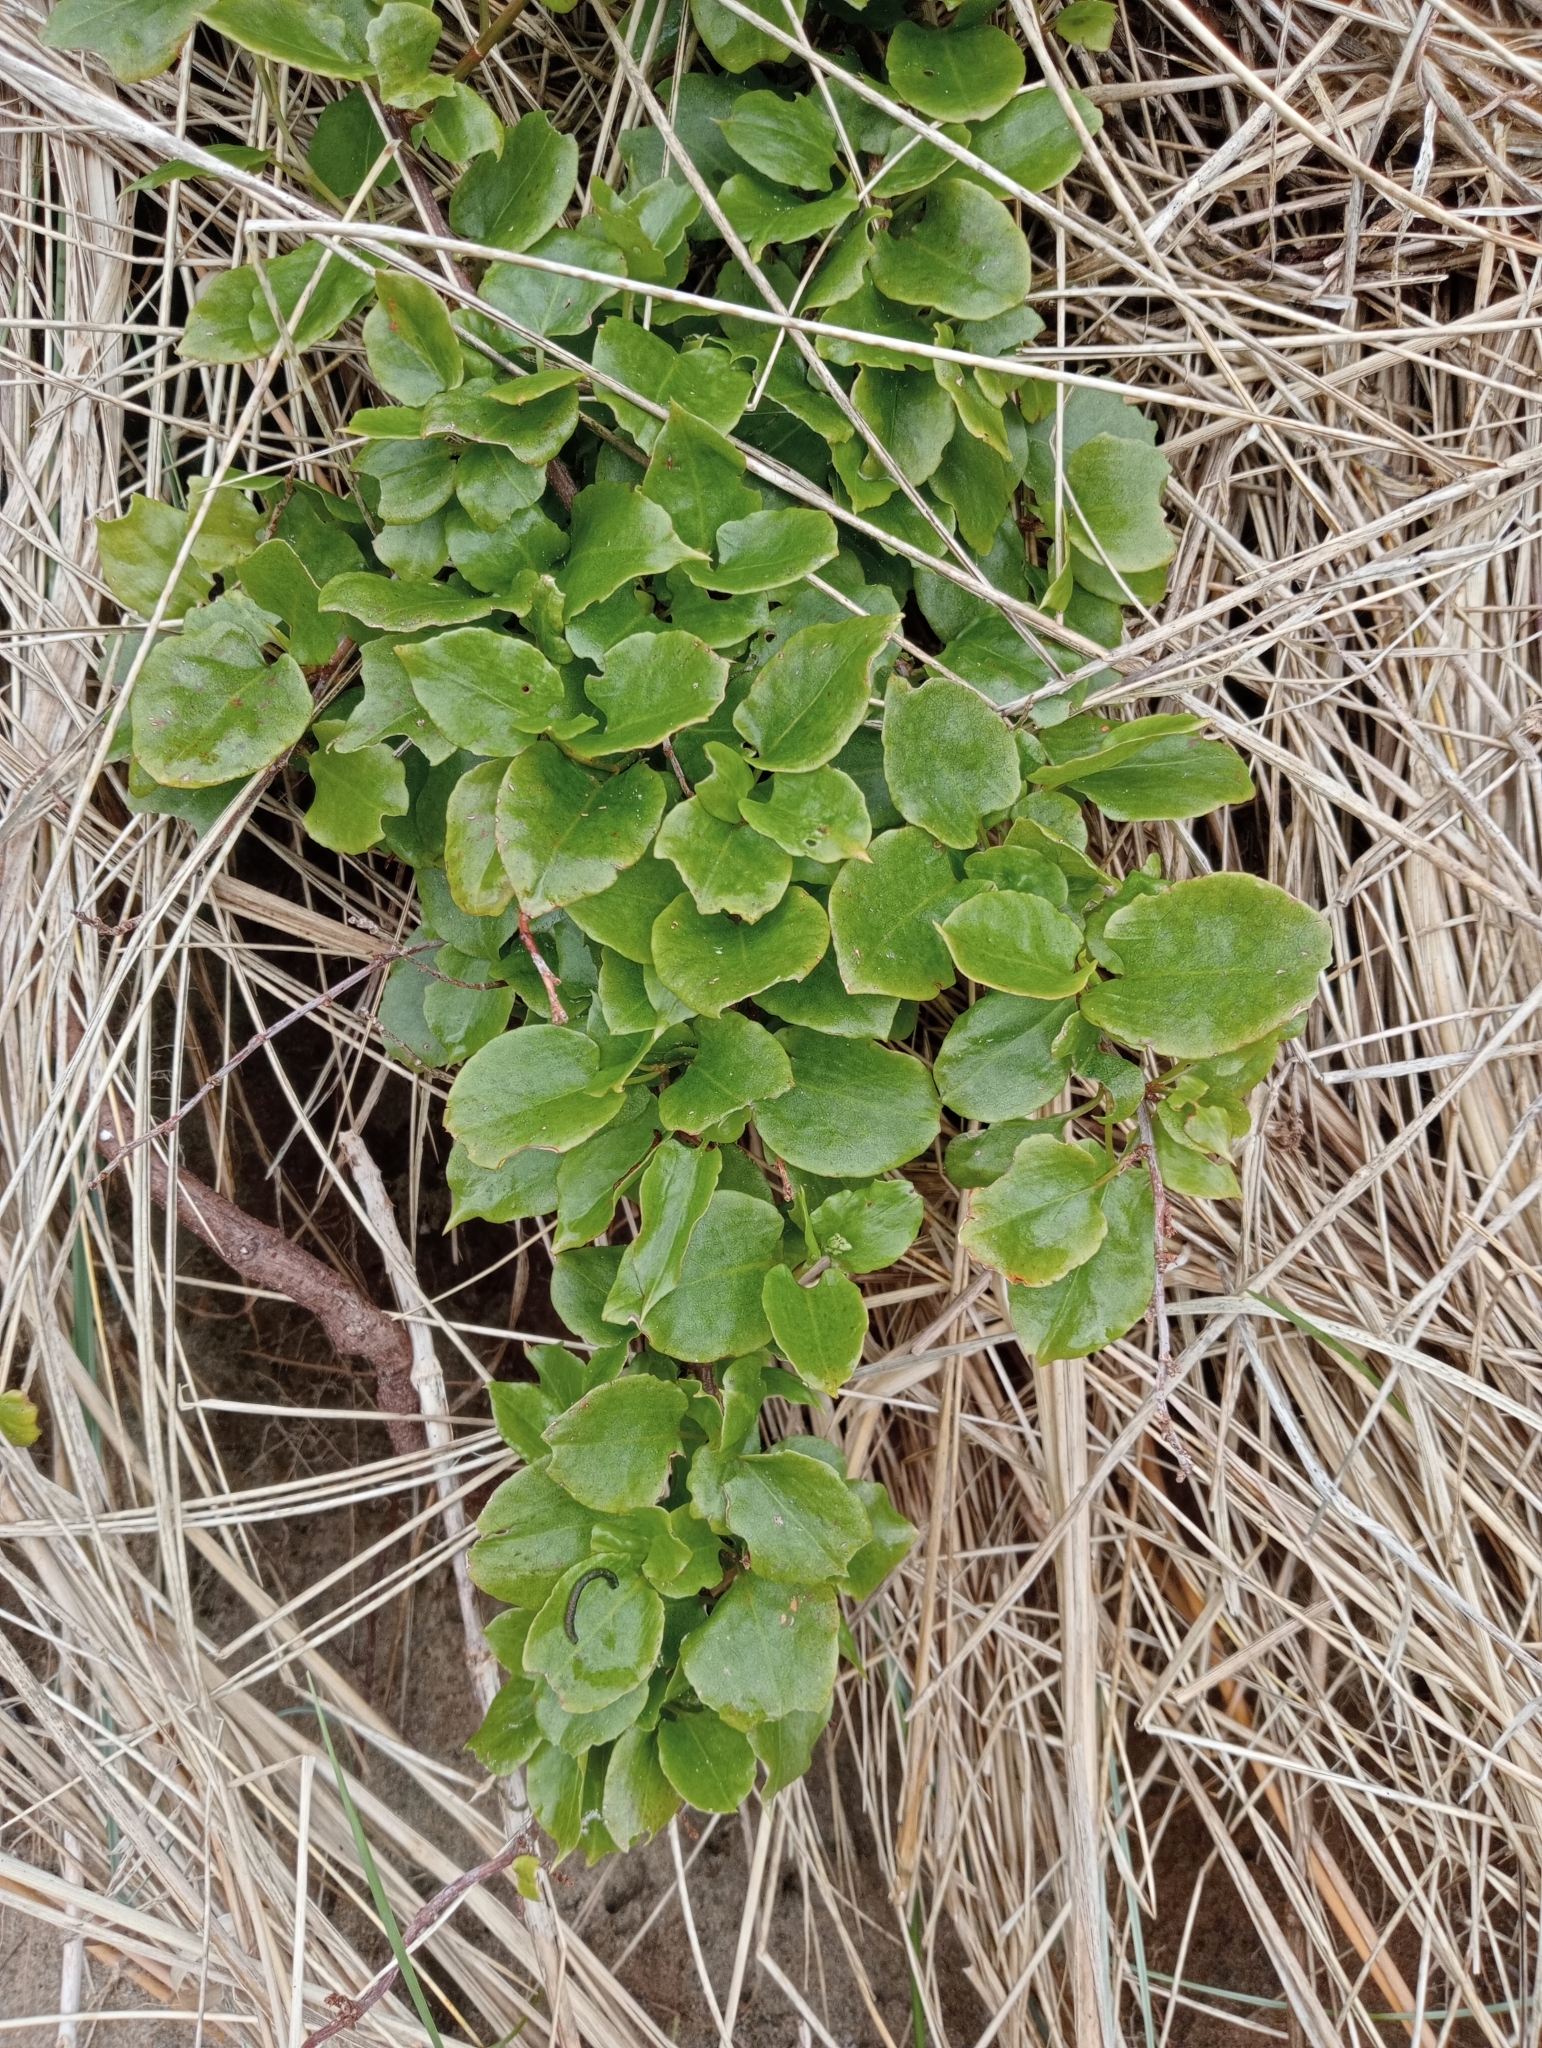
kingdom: Plantae
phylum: Tracheophyta
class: Magnoliopsida
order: Caryophyllales
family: Polygonaceae
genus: Muehlenbeckia
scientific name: Muehlenbeckia australis
